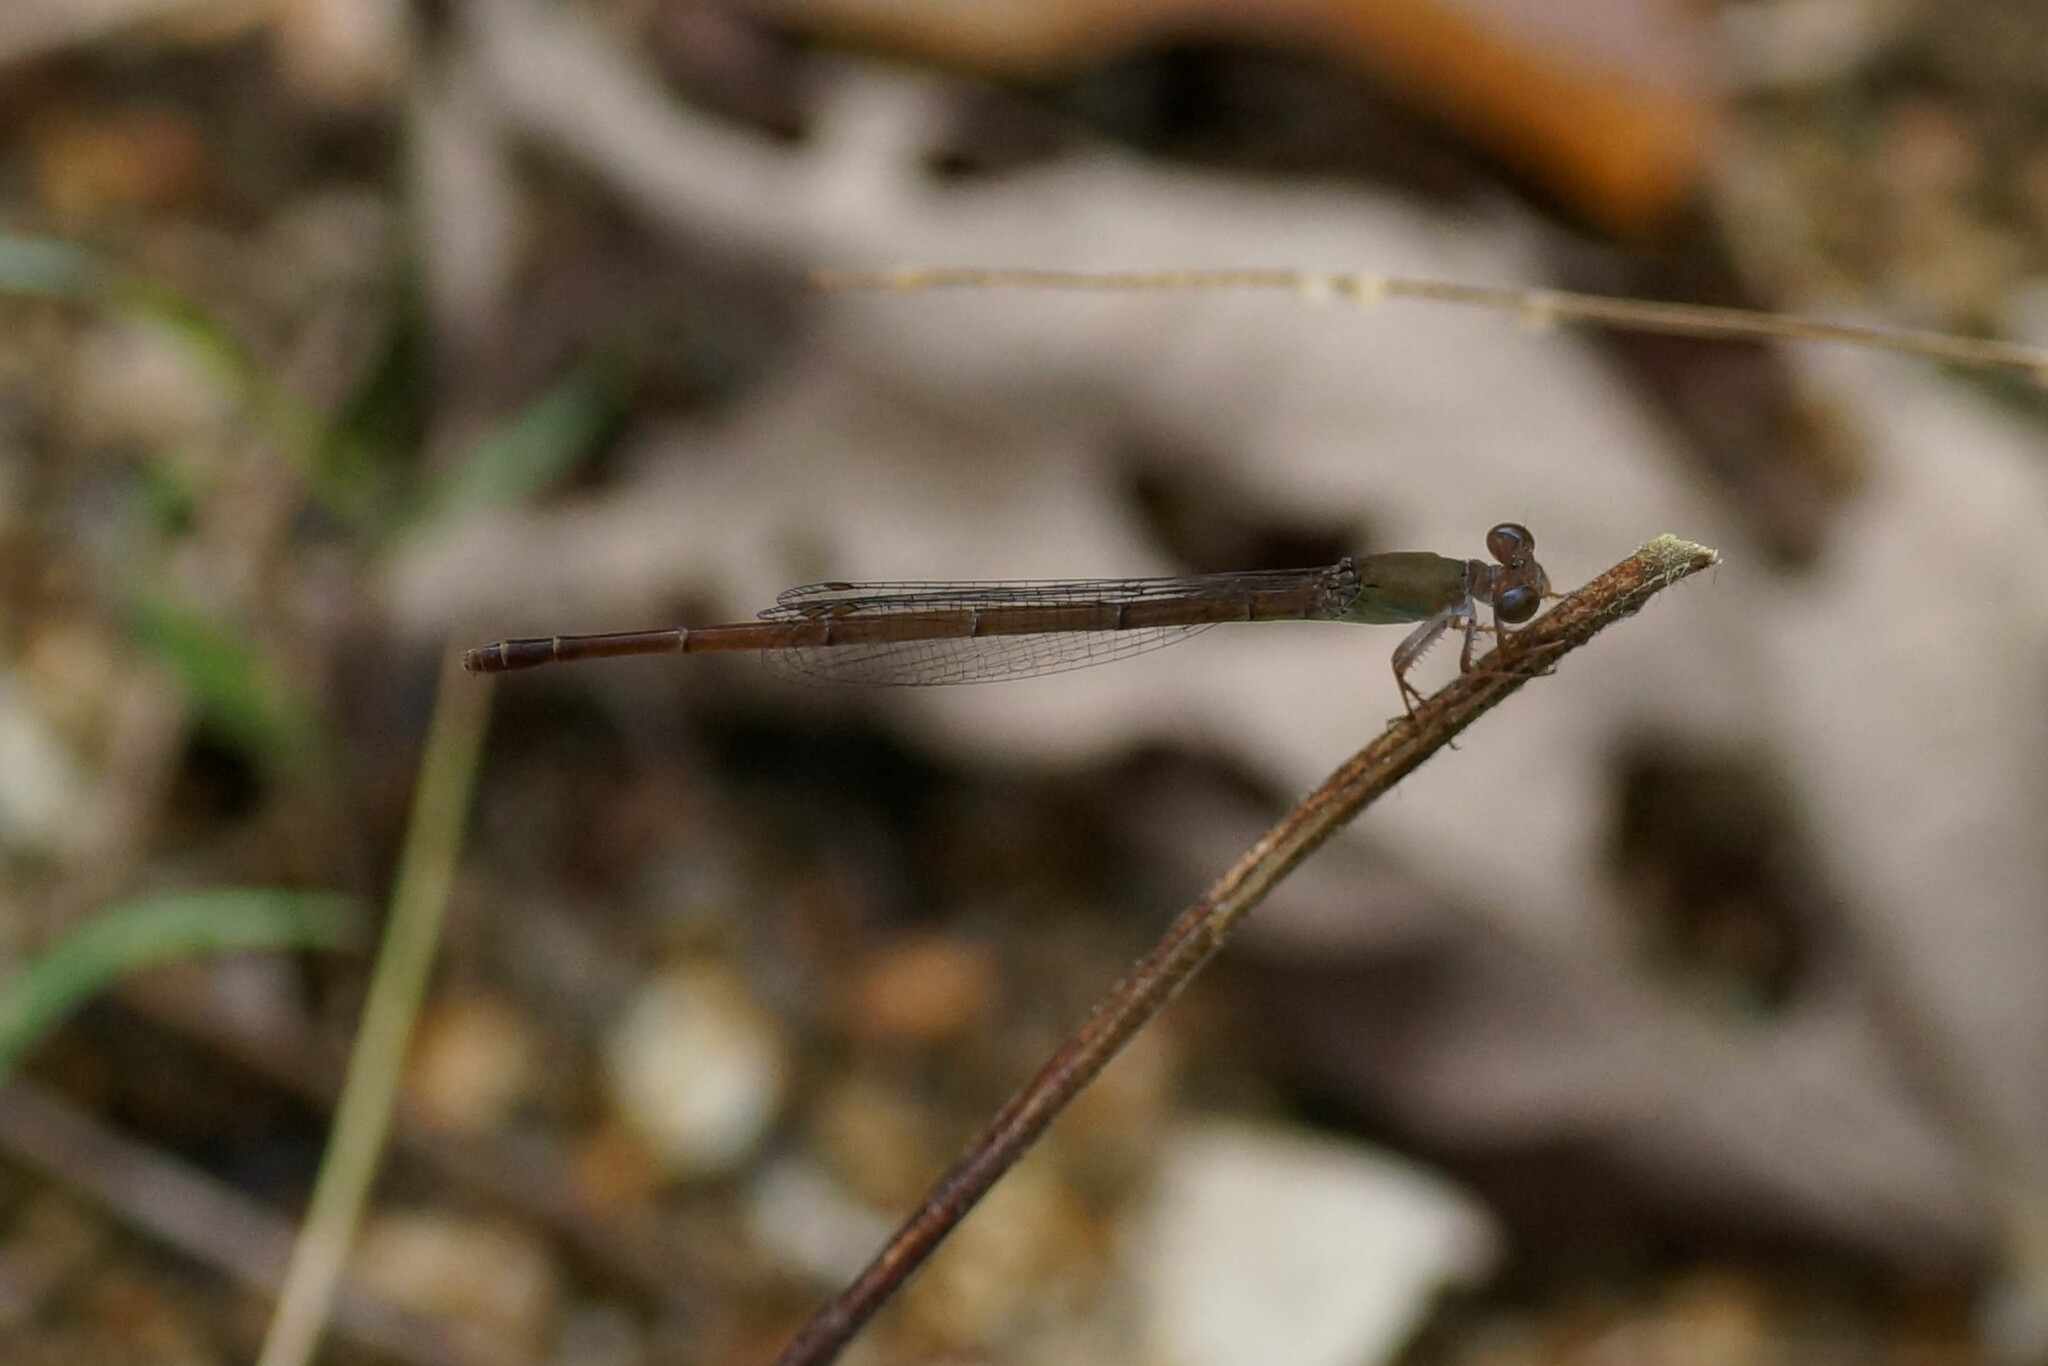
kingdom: Animalia
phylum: Arthropoda
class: Insecta
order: Odonata
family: Coenagrionidae
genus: Ceriagrion
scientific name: Ceriagrion aeruginosum
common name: Redtail
